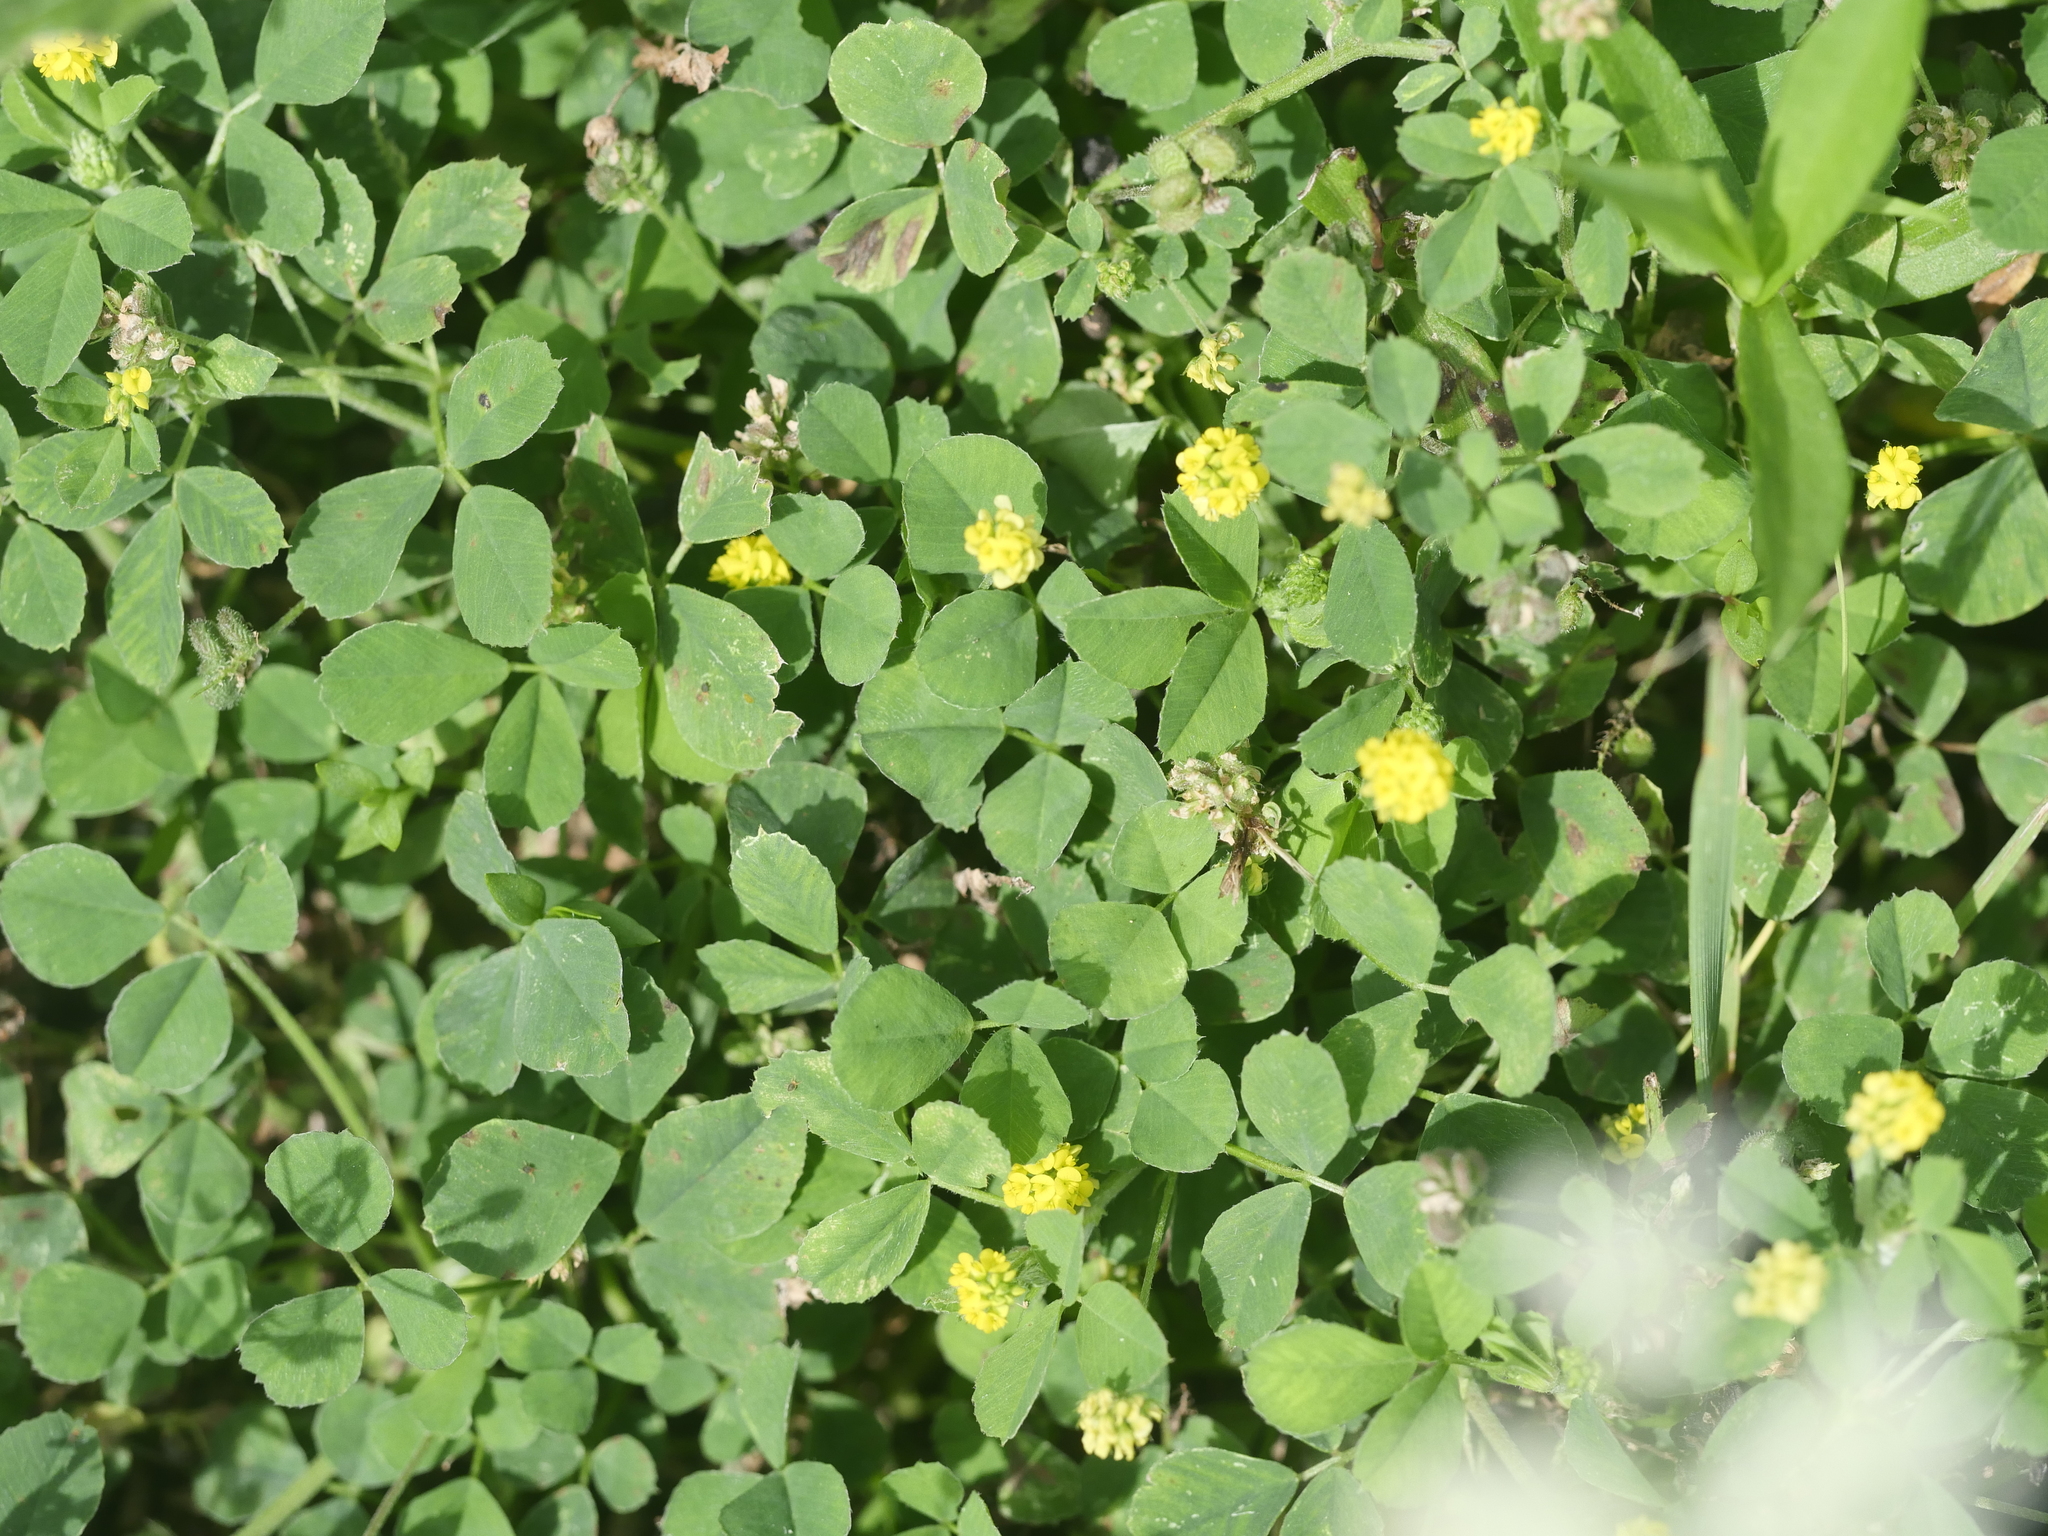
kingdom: Plantae
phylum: Tracheophyta
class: Magnoliopsida
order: Fabales
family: Fabaceae
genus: Medicago
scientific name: Medicago lupulina
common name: Black medick
